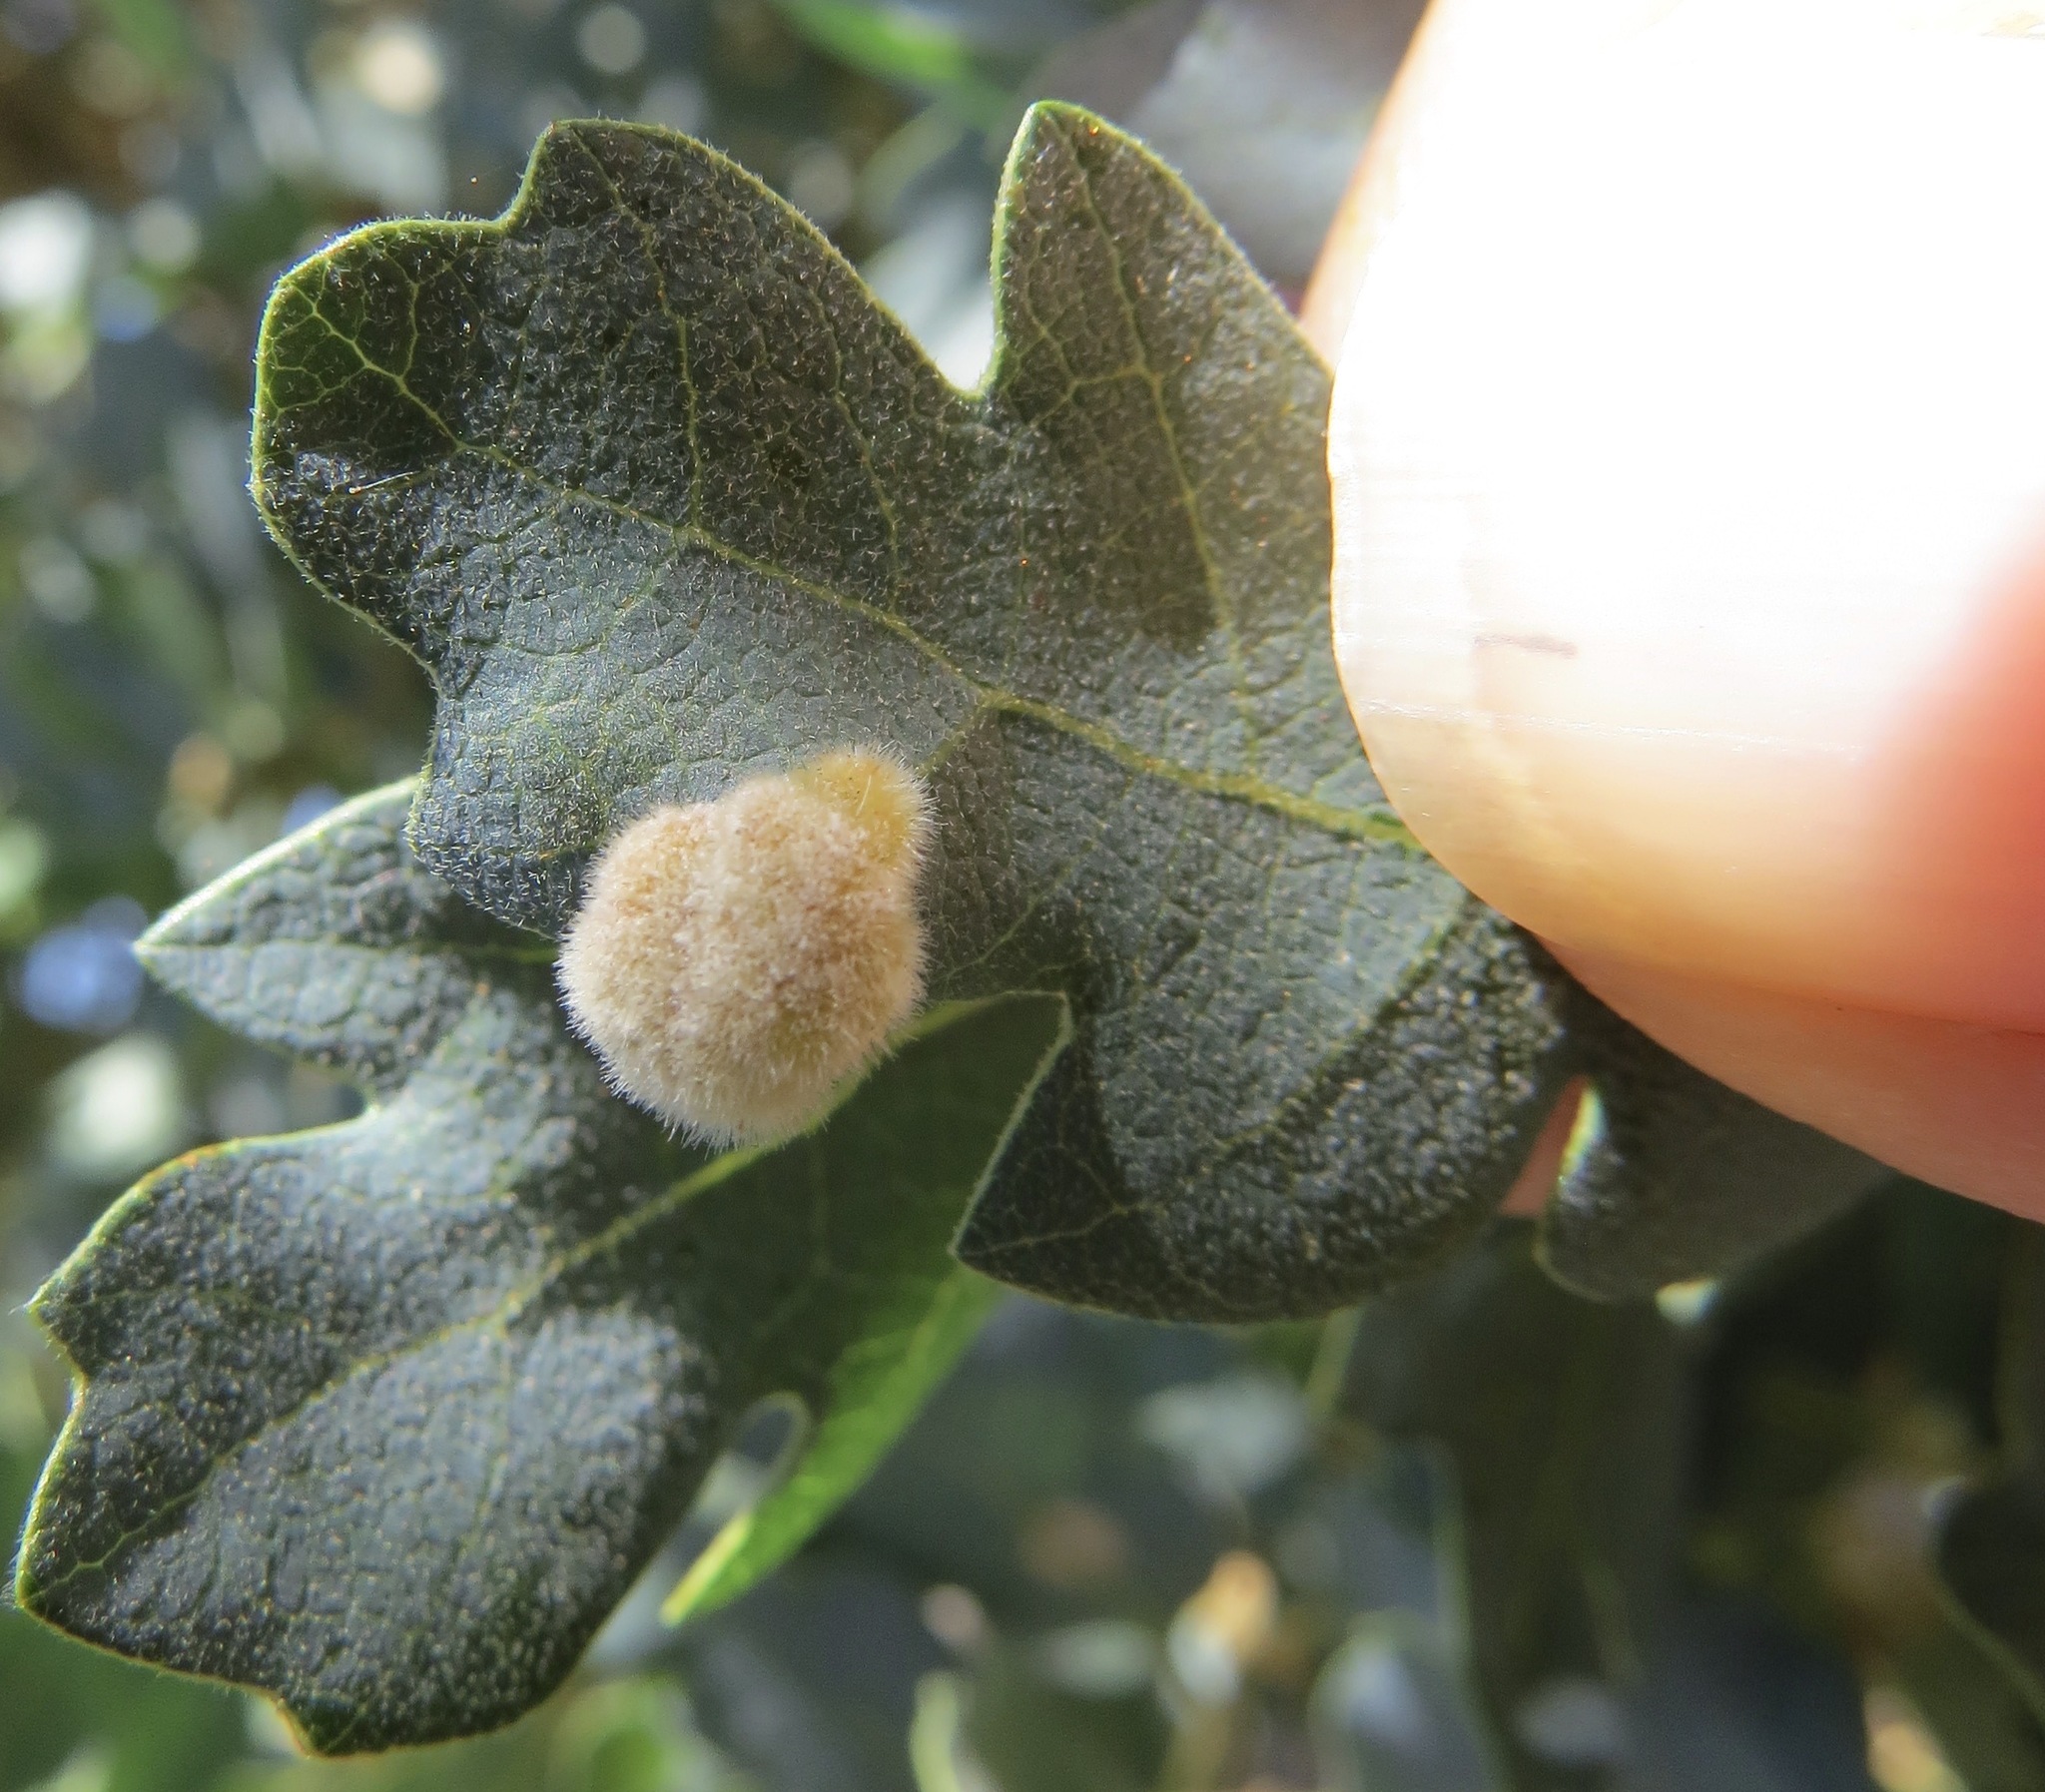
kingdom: Animalia
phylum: Arthropoda
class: Arachnida
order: Trombidiformes
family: Eriophyidae
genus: Aceria
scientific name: Aceria
